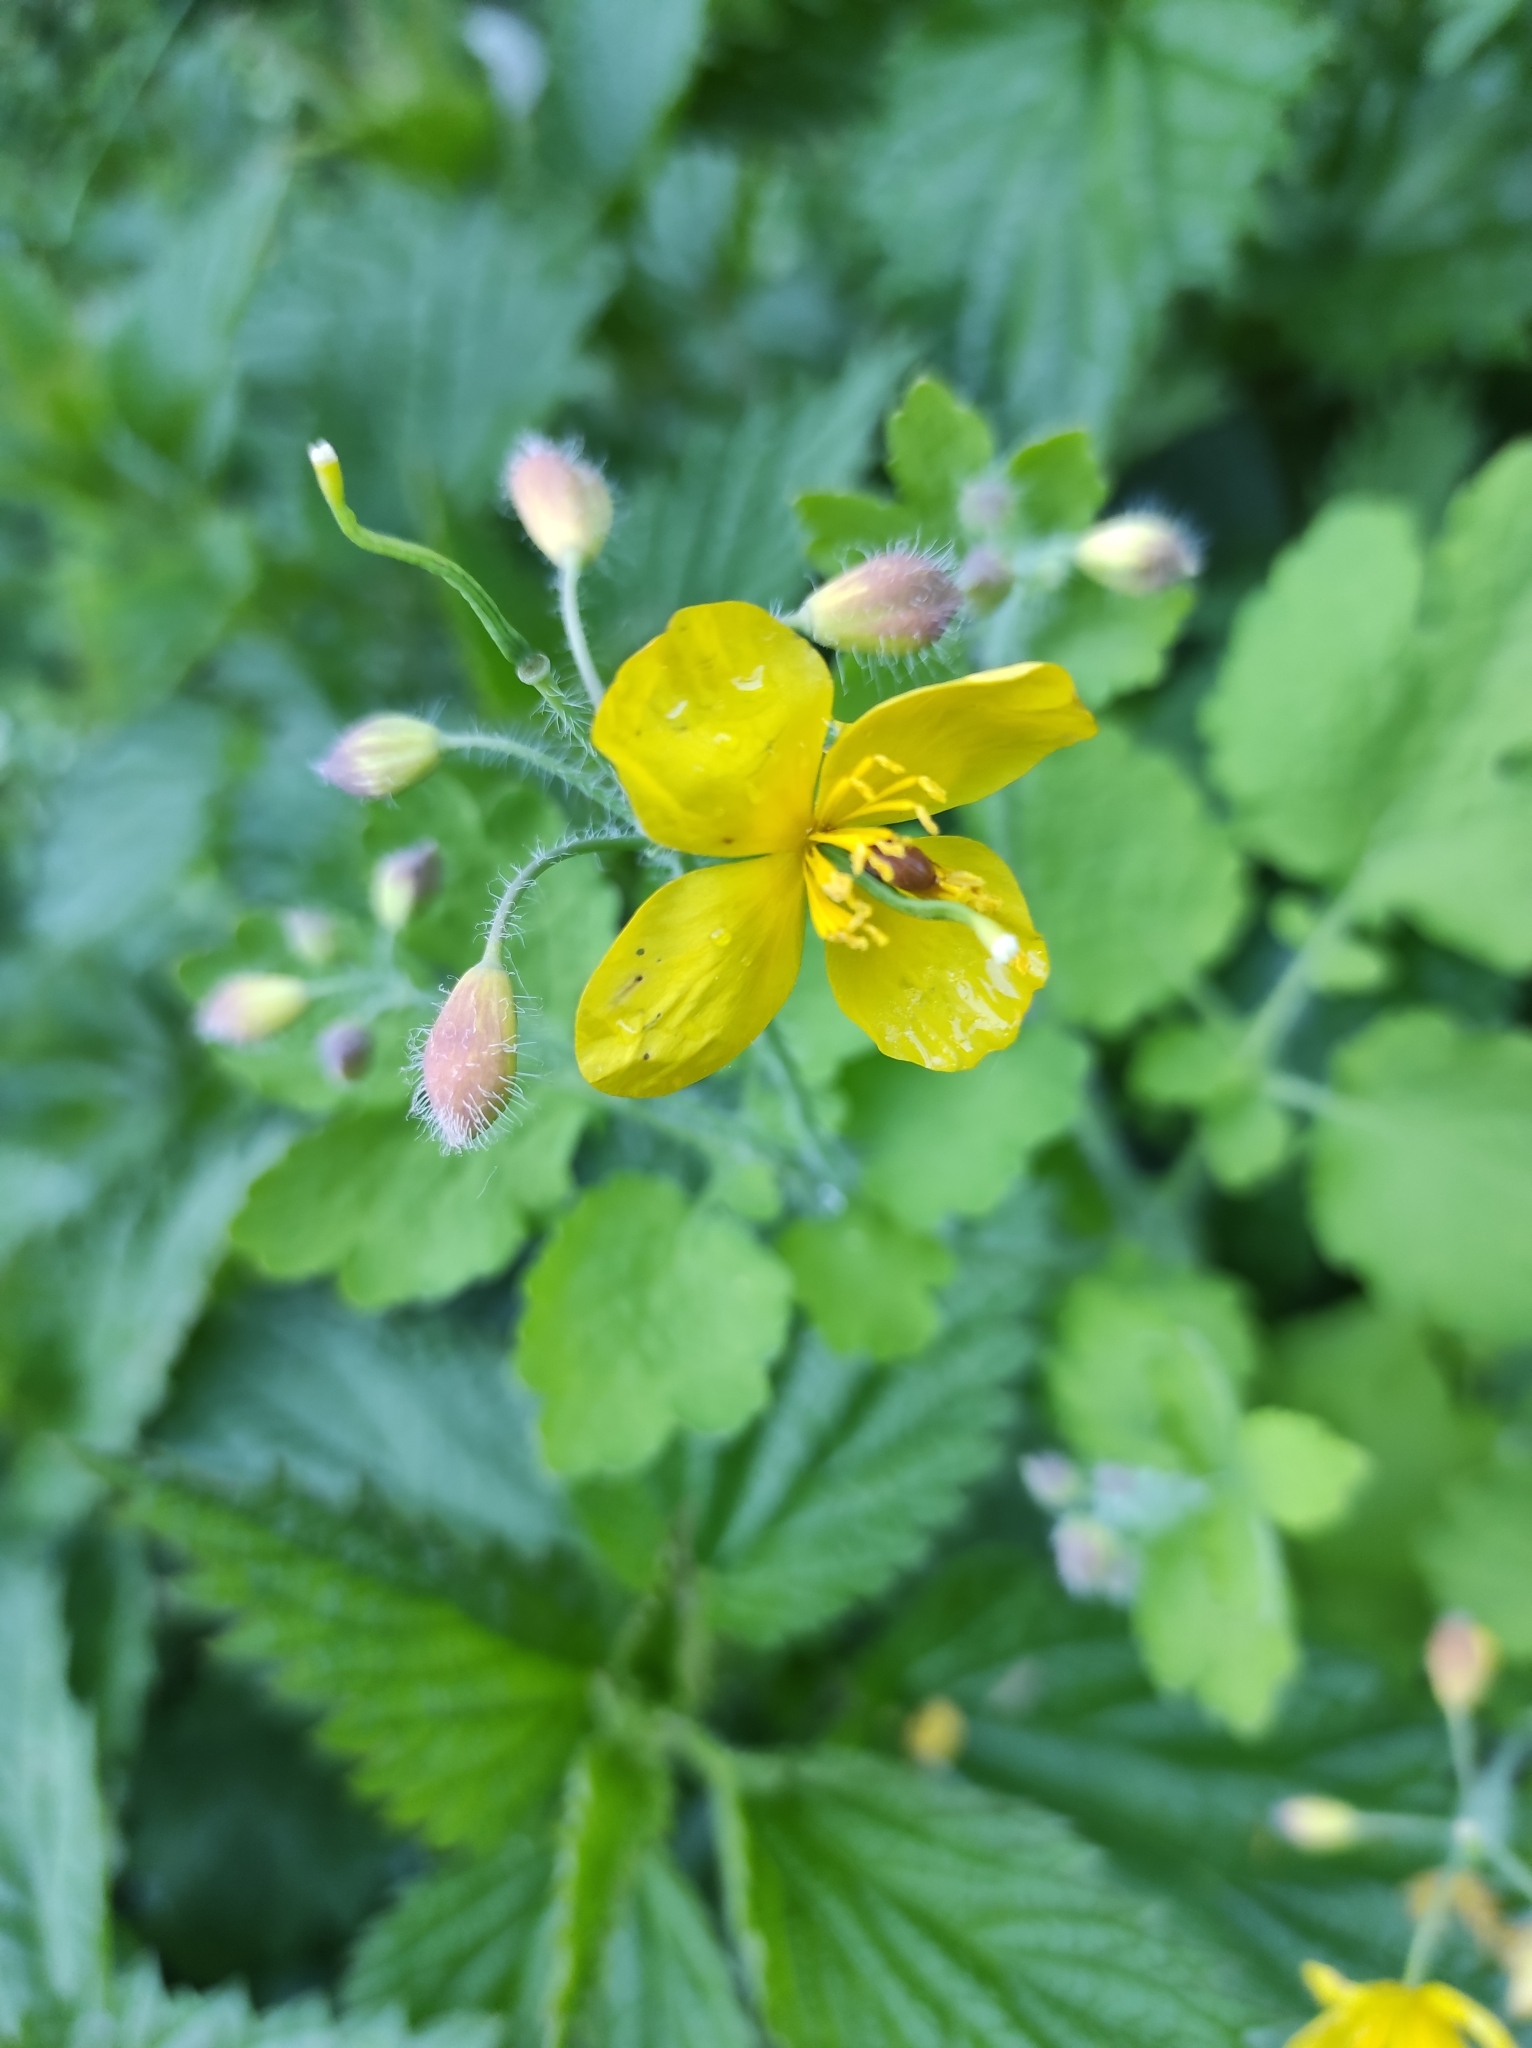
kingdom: Plantae
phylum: Tracheophyta
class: Magnoliopsida
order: Ranunculales
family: Papaveraceae
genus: Chelidonium
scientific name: Chelidonium majus
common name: Greater celandine
